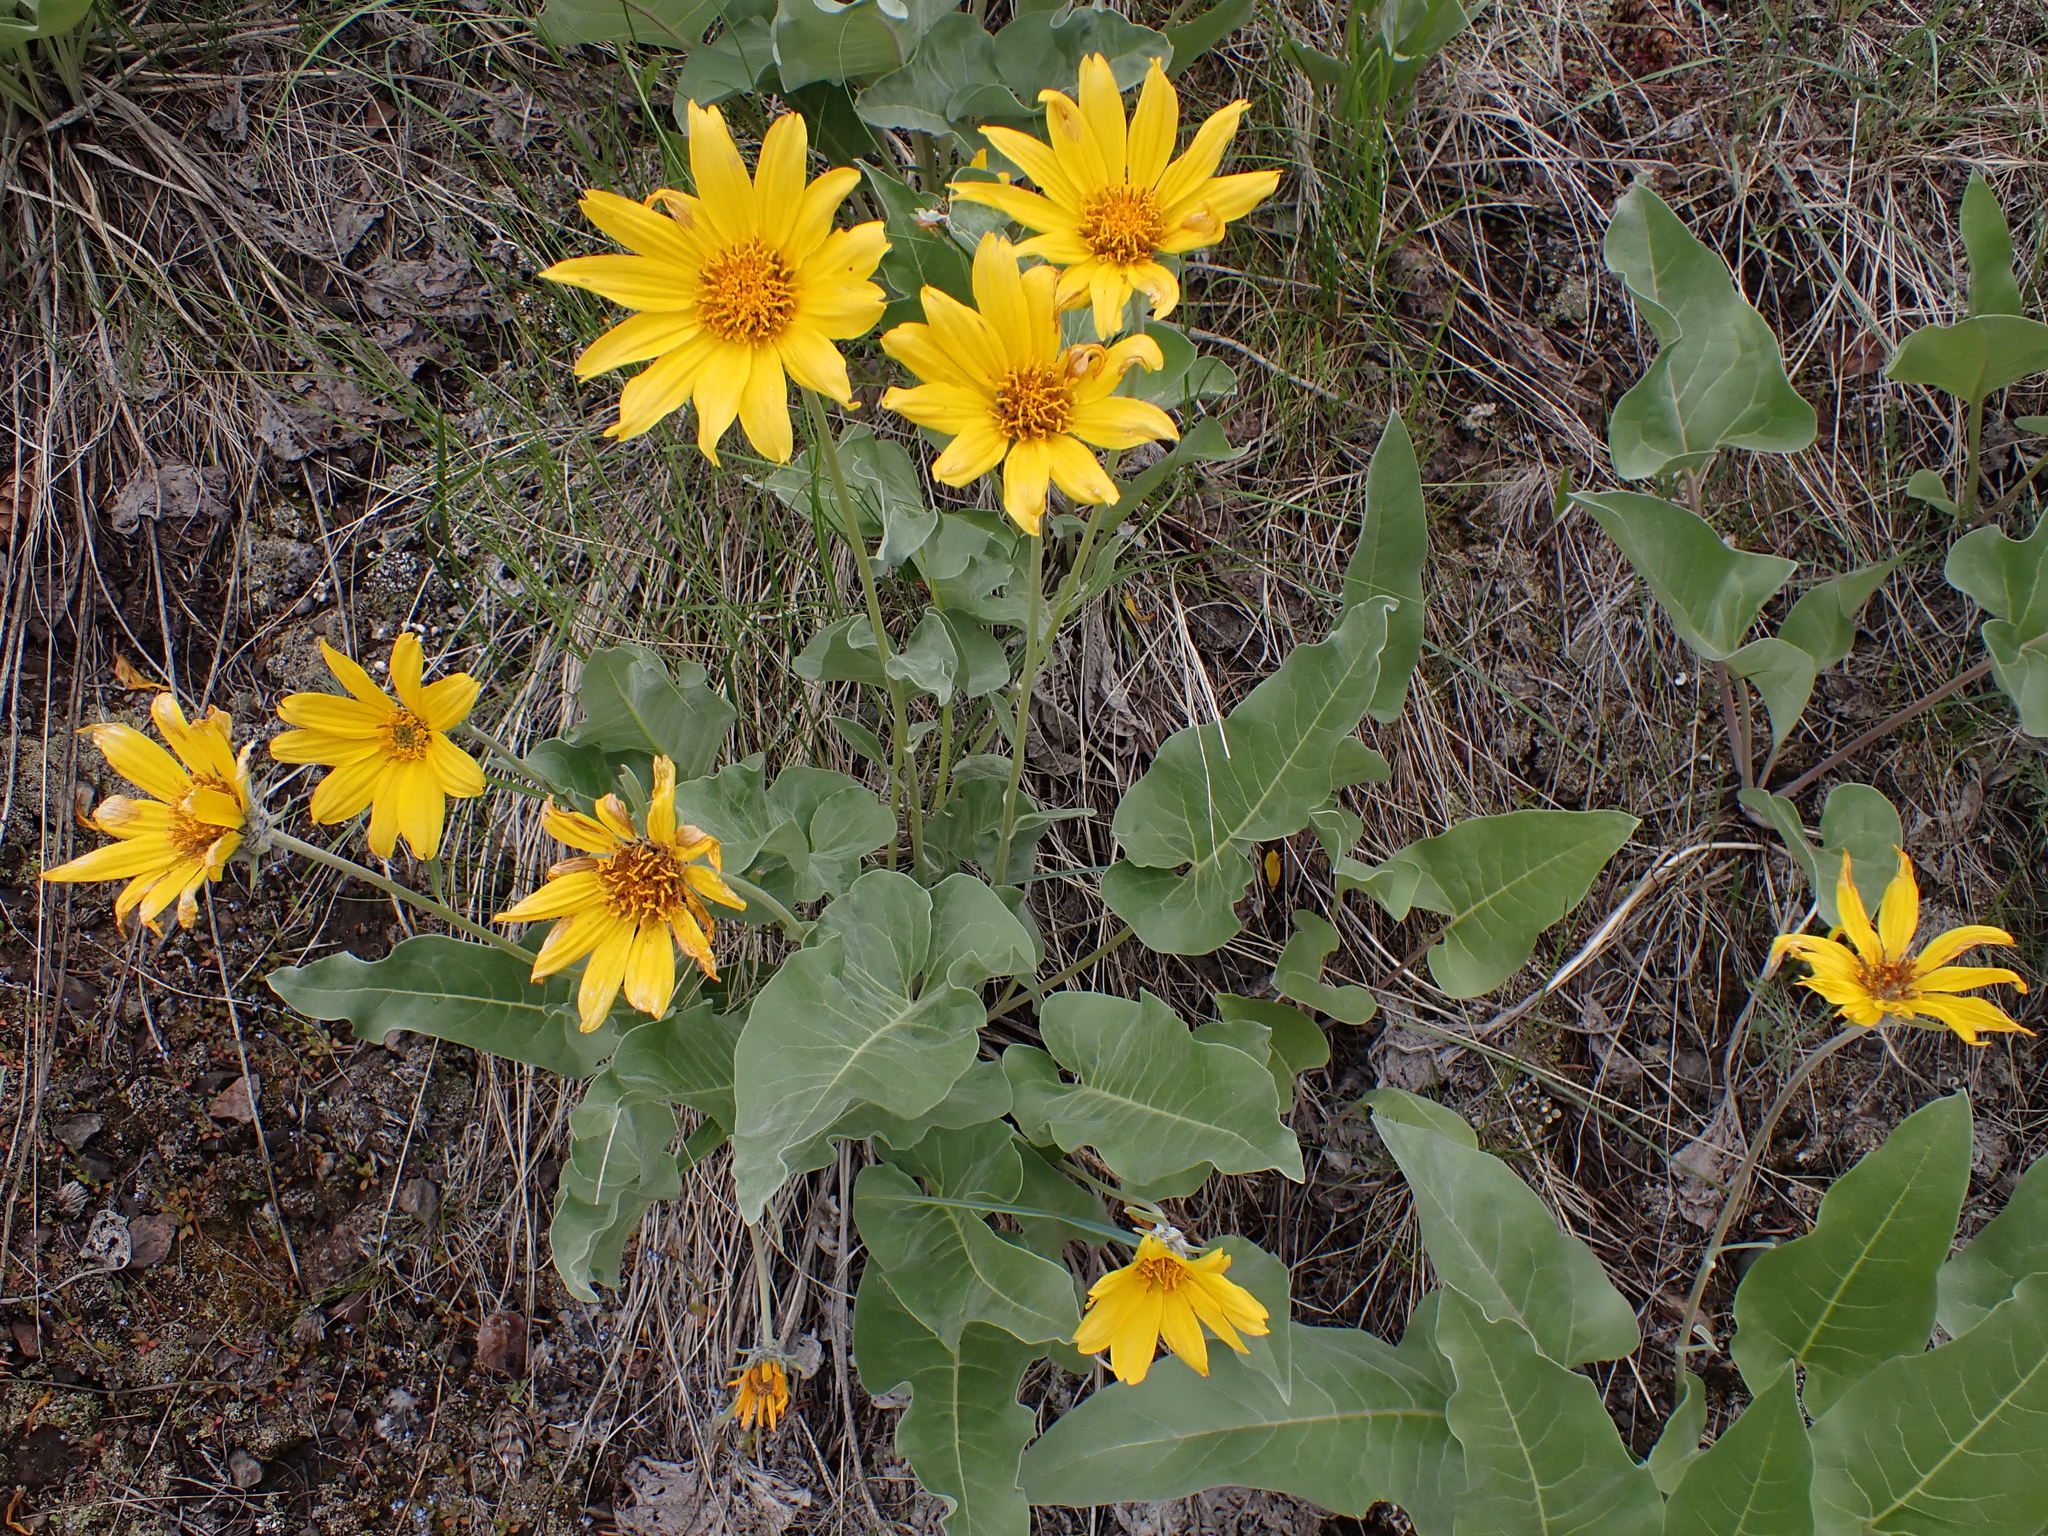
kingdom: Plantae
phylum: Tracheophyta
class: Magnoliopsida
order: Asterales
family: Asteraceae
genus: Wyethia
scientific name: Wyethia sagittata
